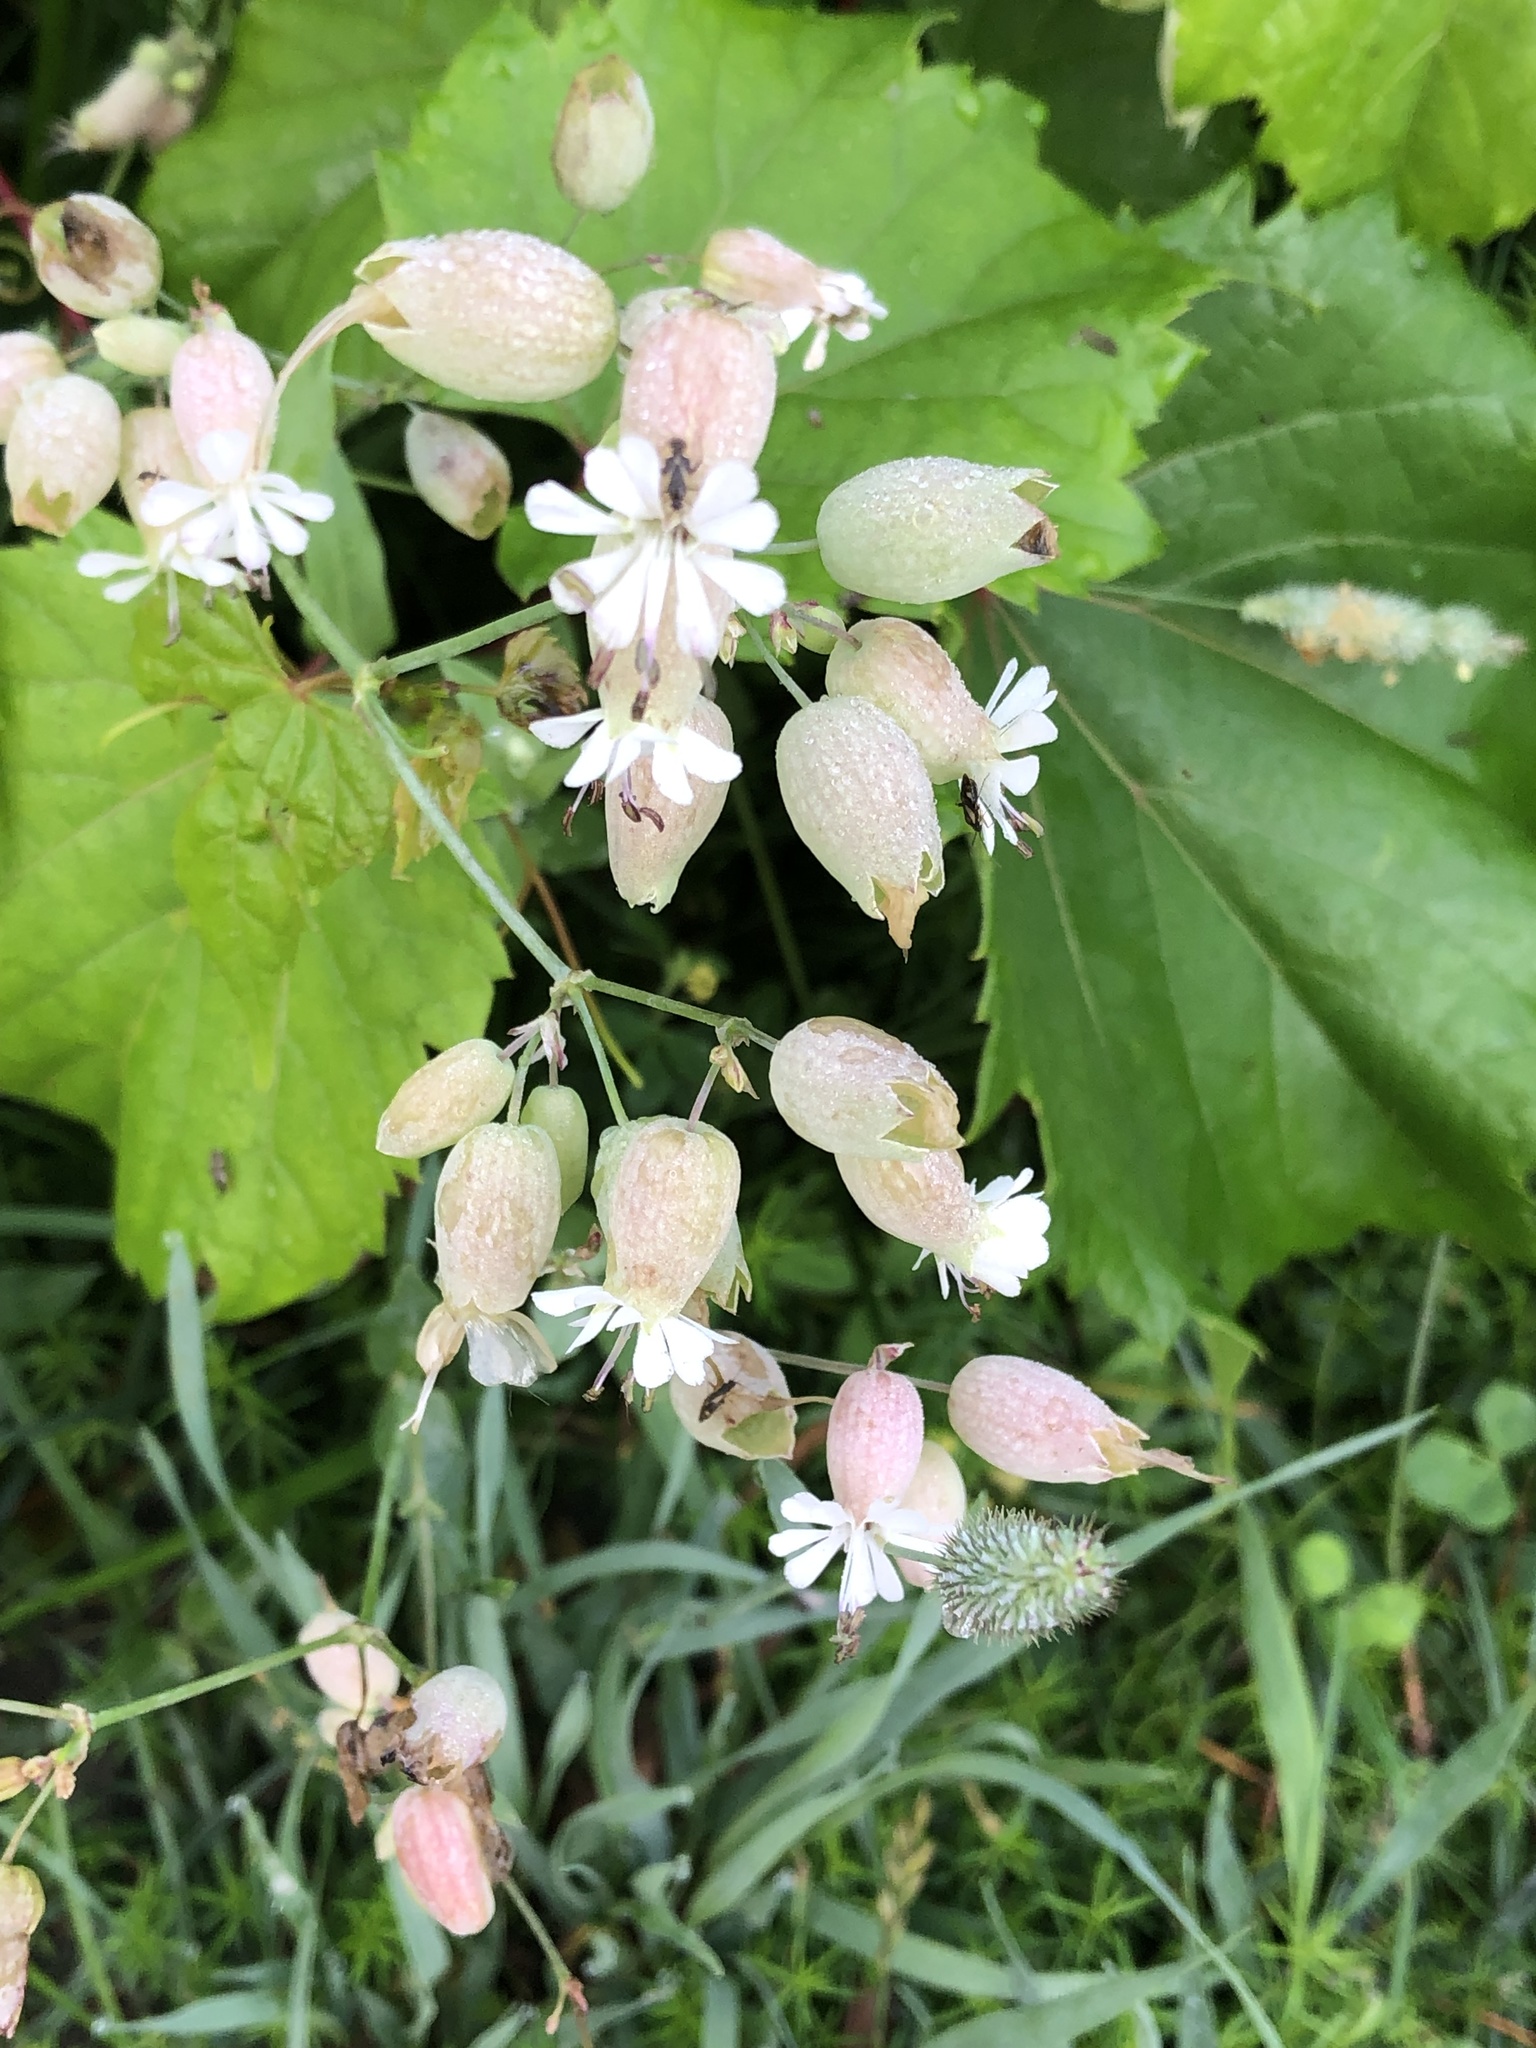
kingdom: Plantae
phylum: Tracheophyta
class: Magnoliopsida
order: Caryophyllales
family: Caryophyllaceae
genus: Silene
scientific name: Silene vulgaris
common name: Bladder campion
